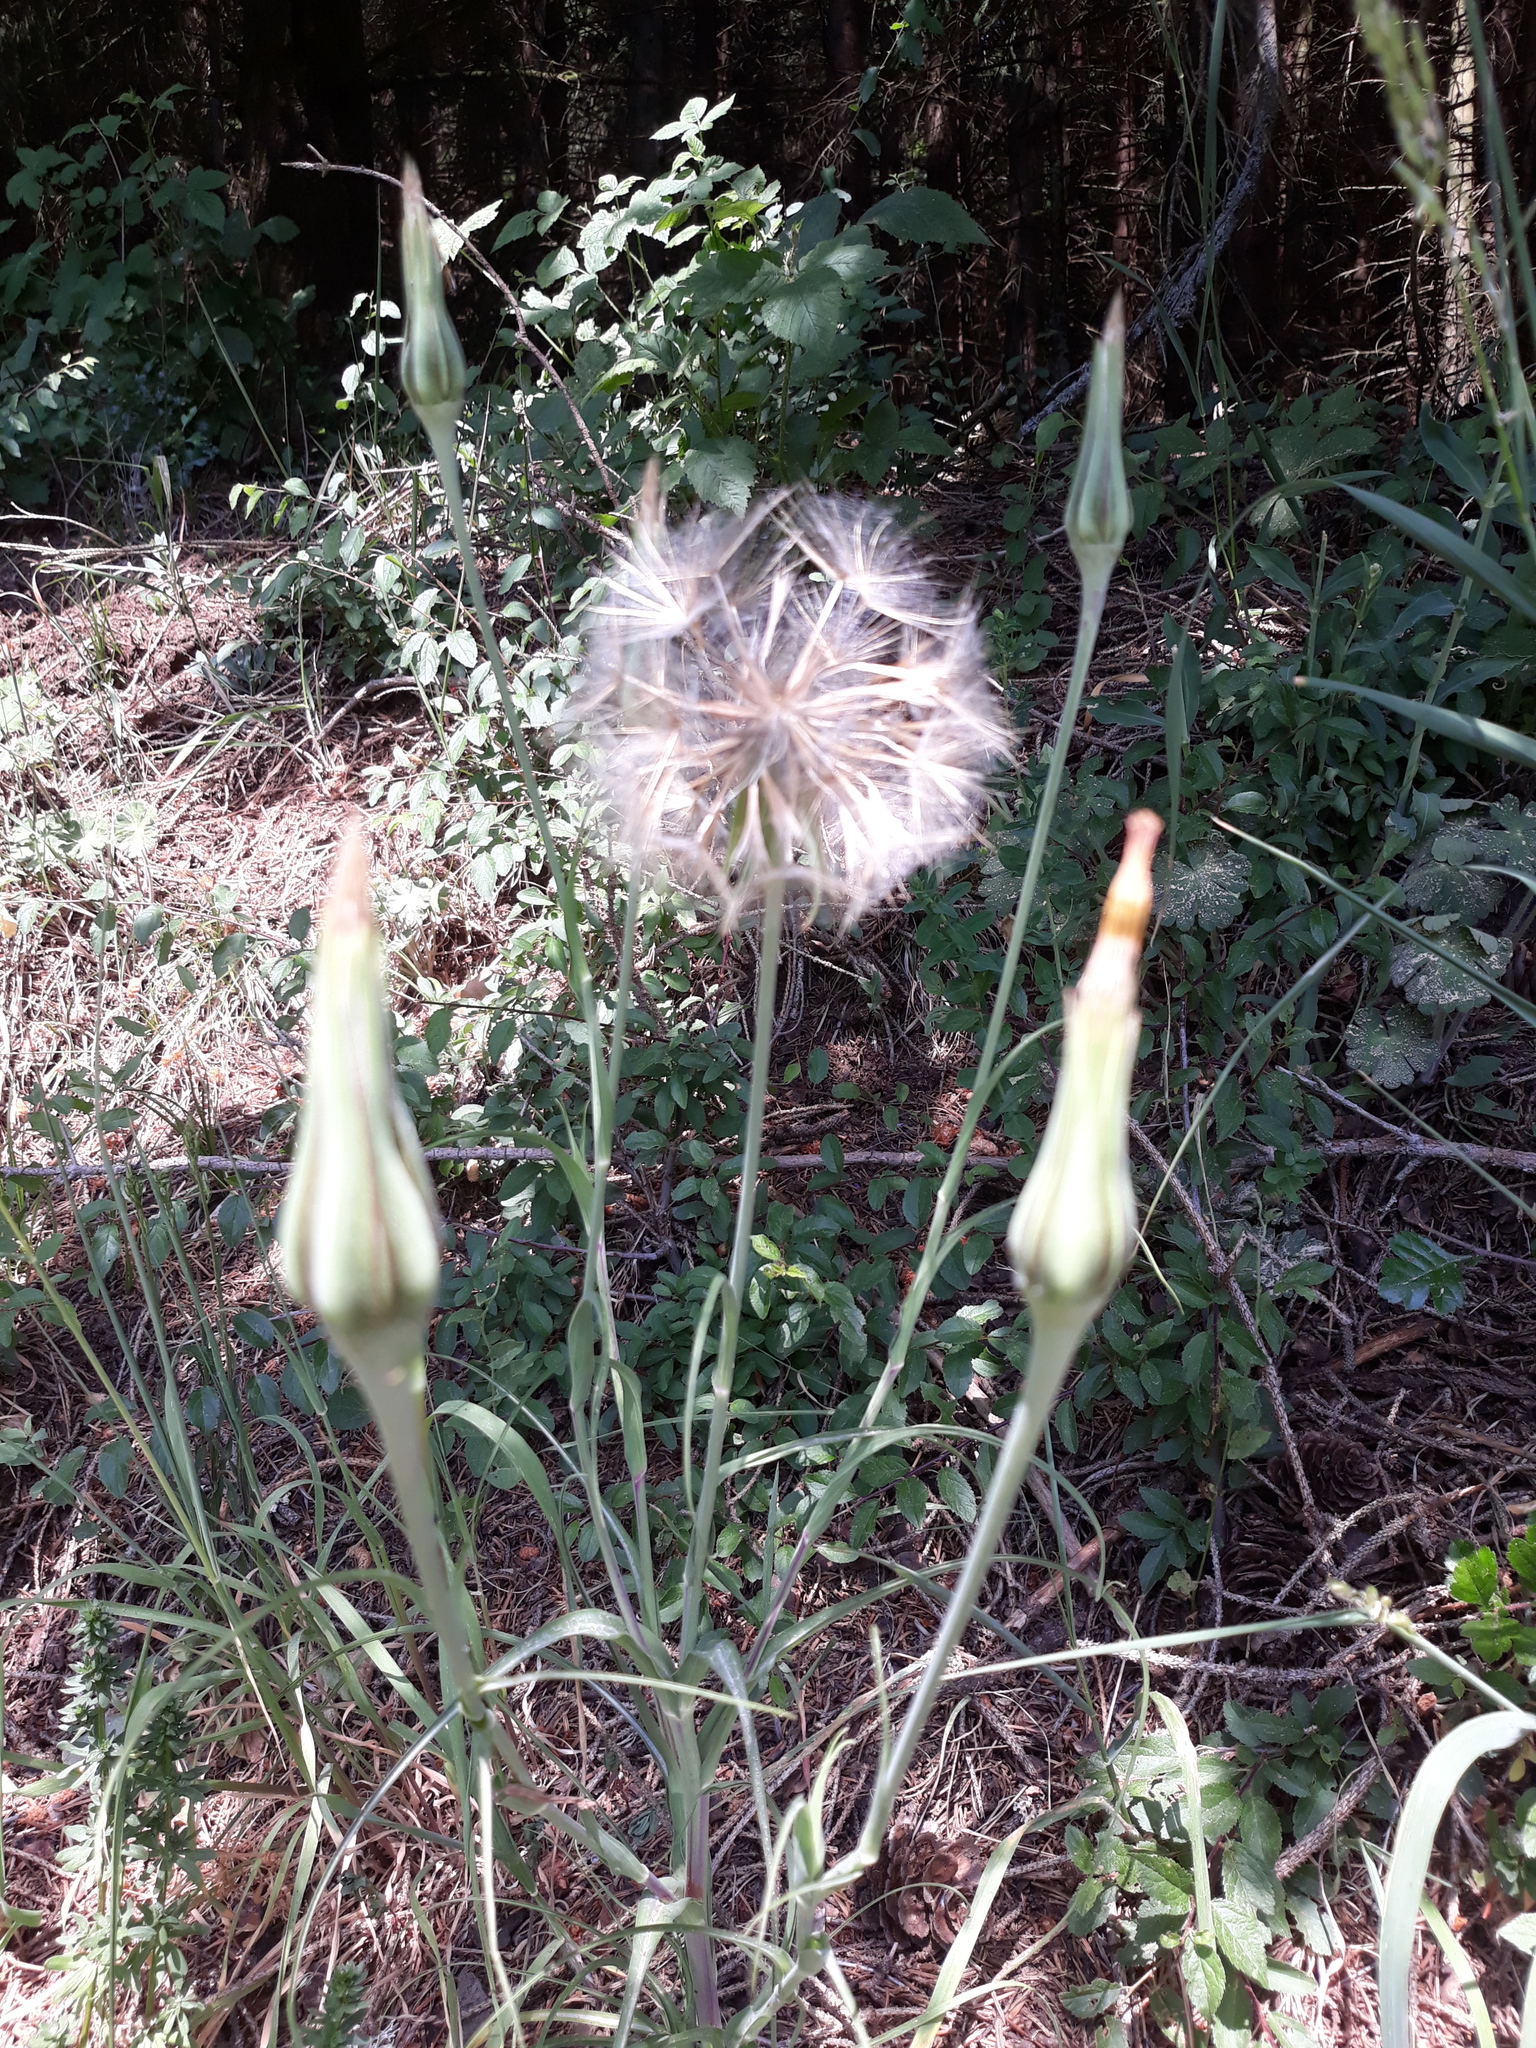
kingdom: Plantae
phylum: Tracheophyta
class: Magnoliopsida
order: Asterales
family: Asteraceae
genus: Tragopogon
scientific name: Tragopogon pratensis
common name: Goat's-beard
